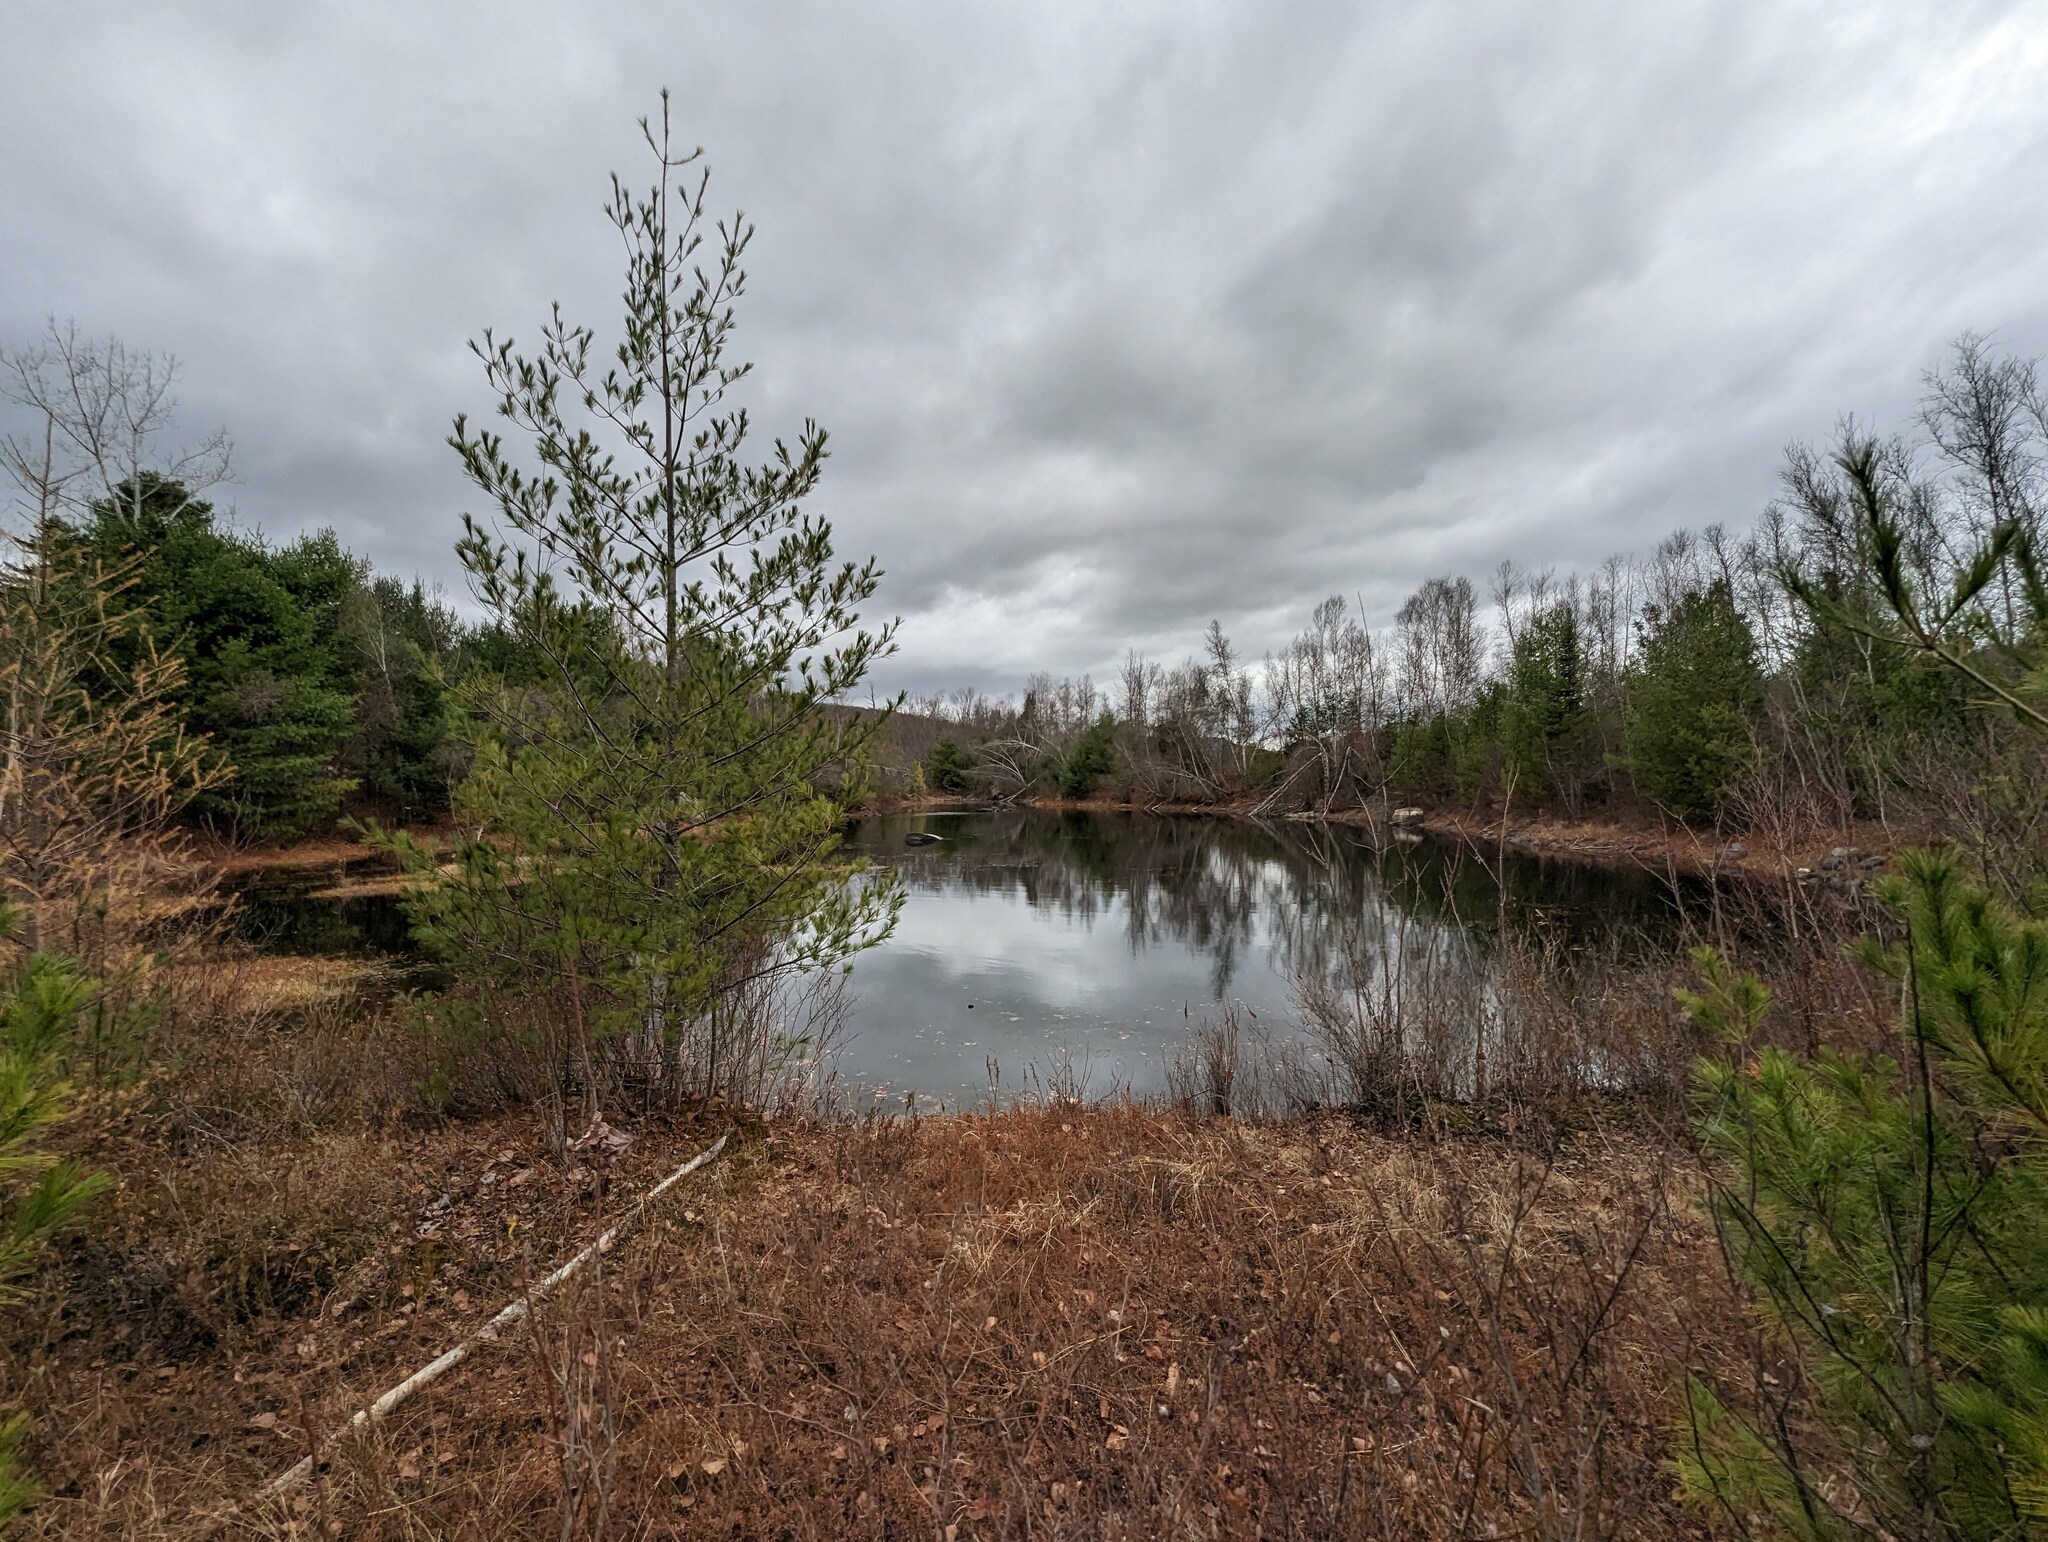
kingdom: Plantae
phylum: Tracheophyta
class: Pinopsida
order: Pinales
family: Pinaceae
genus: Pinus
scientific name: Pinus strobus
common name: Weymouth pine
